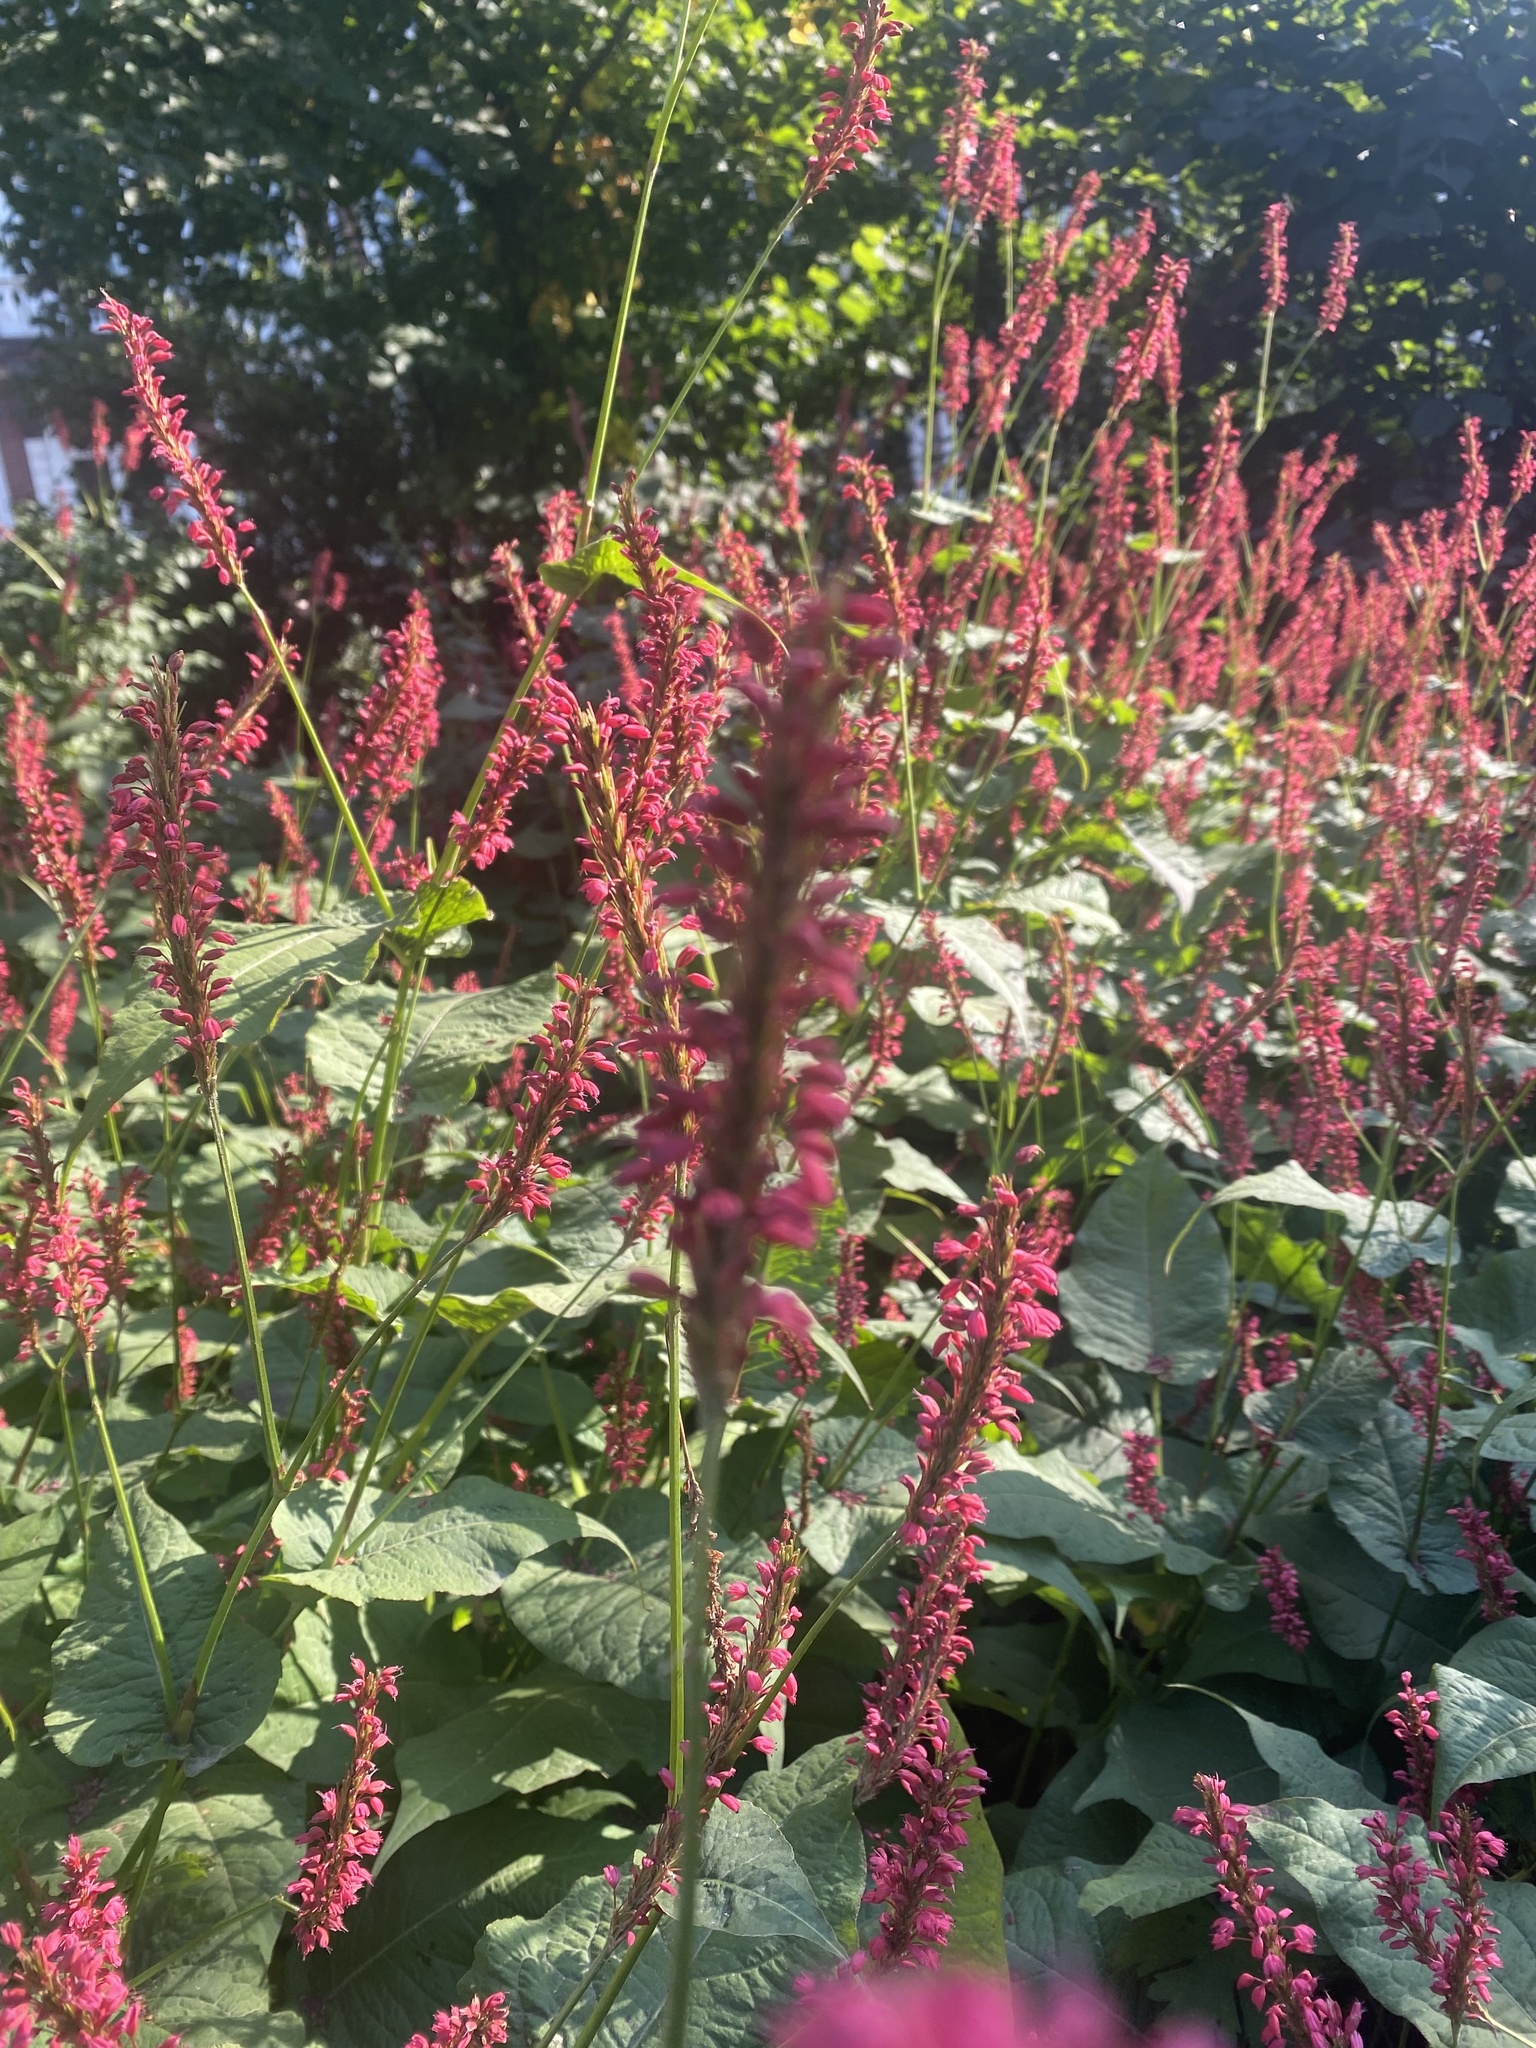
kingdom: Plantae
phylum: Tracheophyta
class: Magnoliopsida
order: Caryophyllales
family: Polygonaceae
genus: Bistorta
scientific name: Bistorta amplexicaulis
